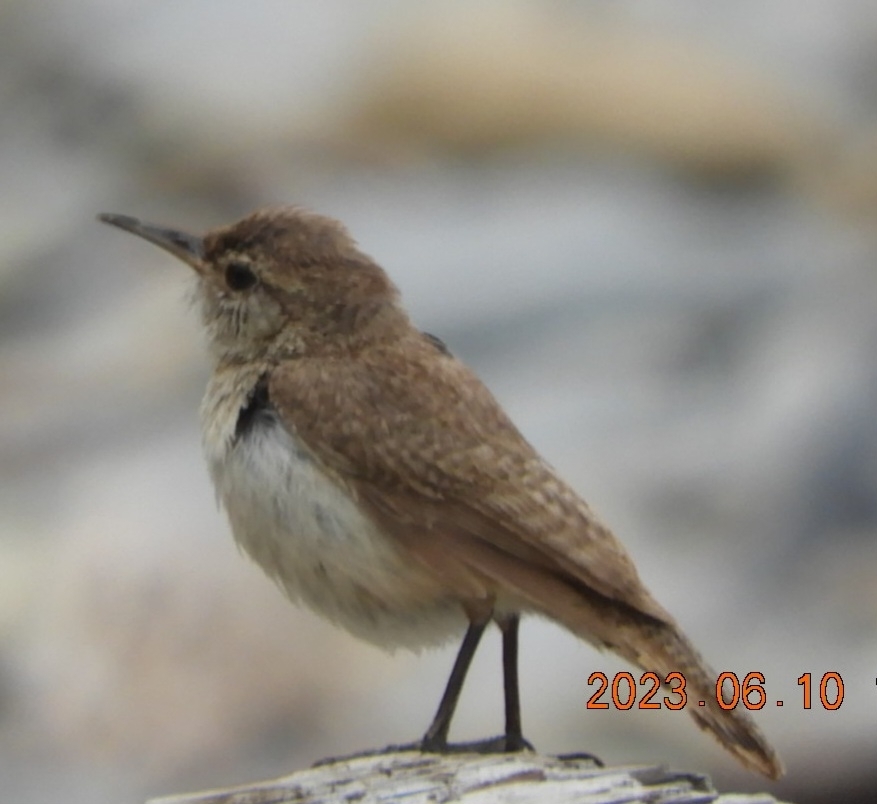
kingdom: Animalia
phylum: Chordata
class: Aves
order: Passeriformes
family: Troglodytidae
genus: Salpinctes
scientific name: Salpinctes obsoletus
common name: Rock wren
